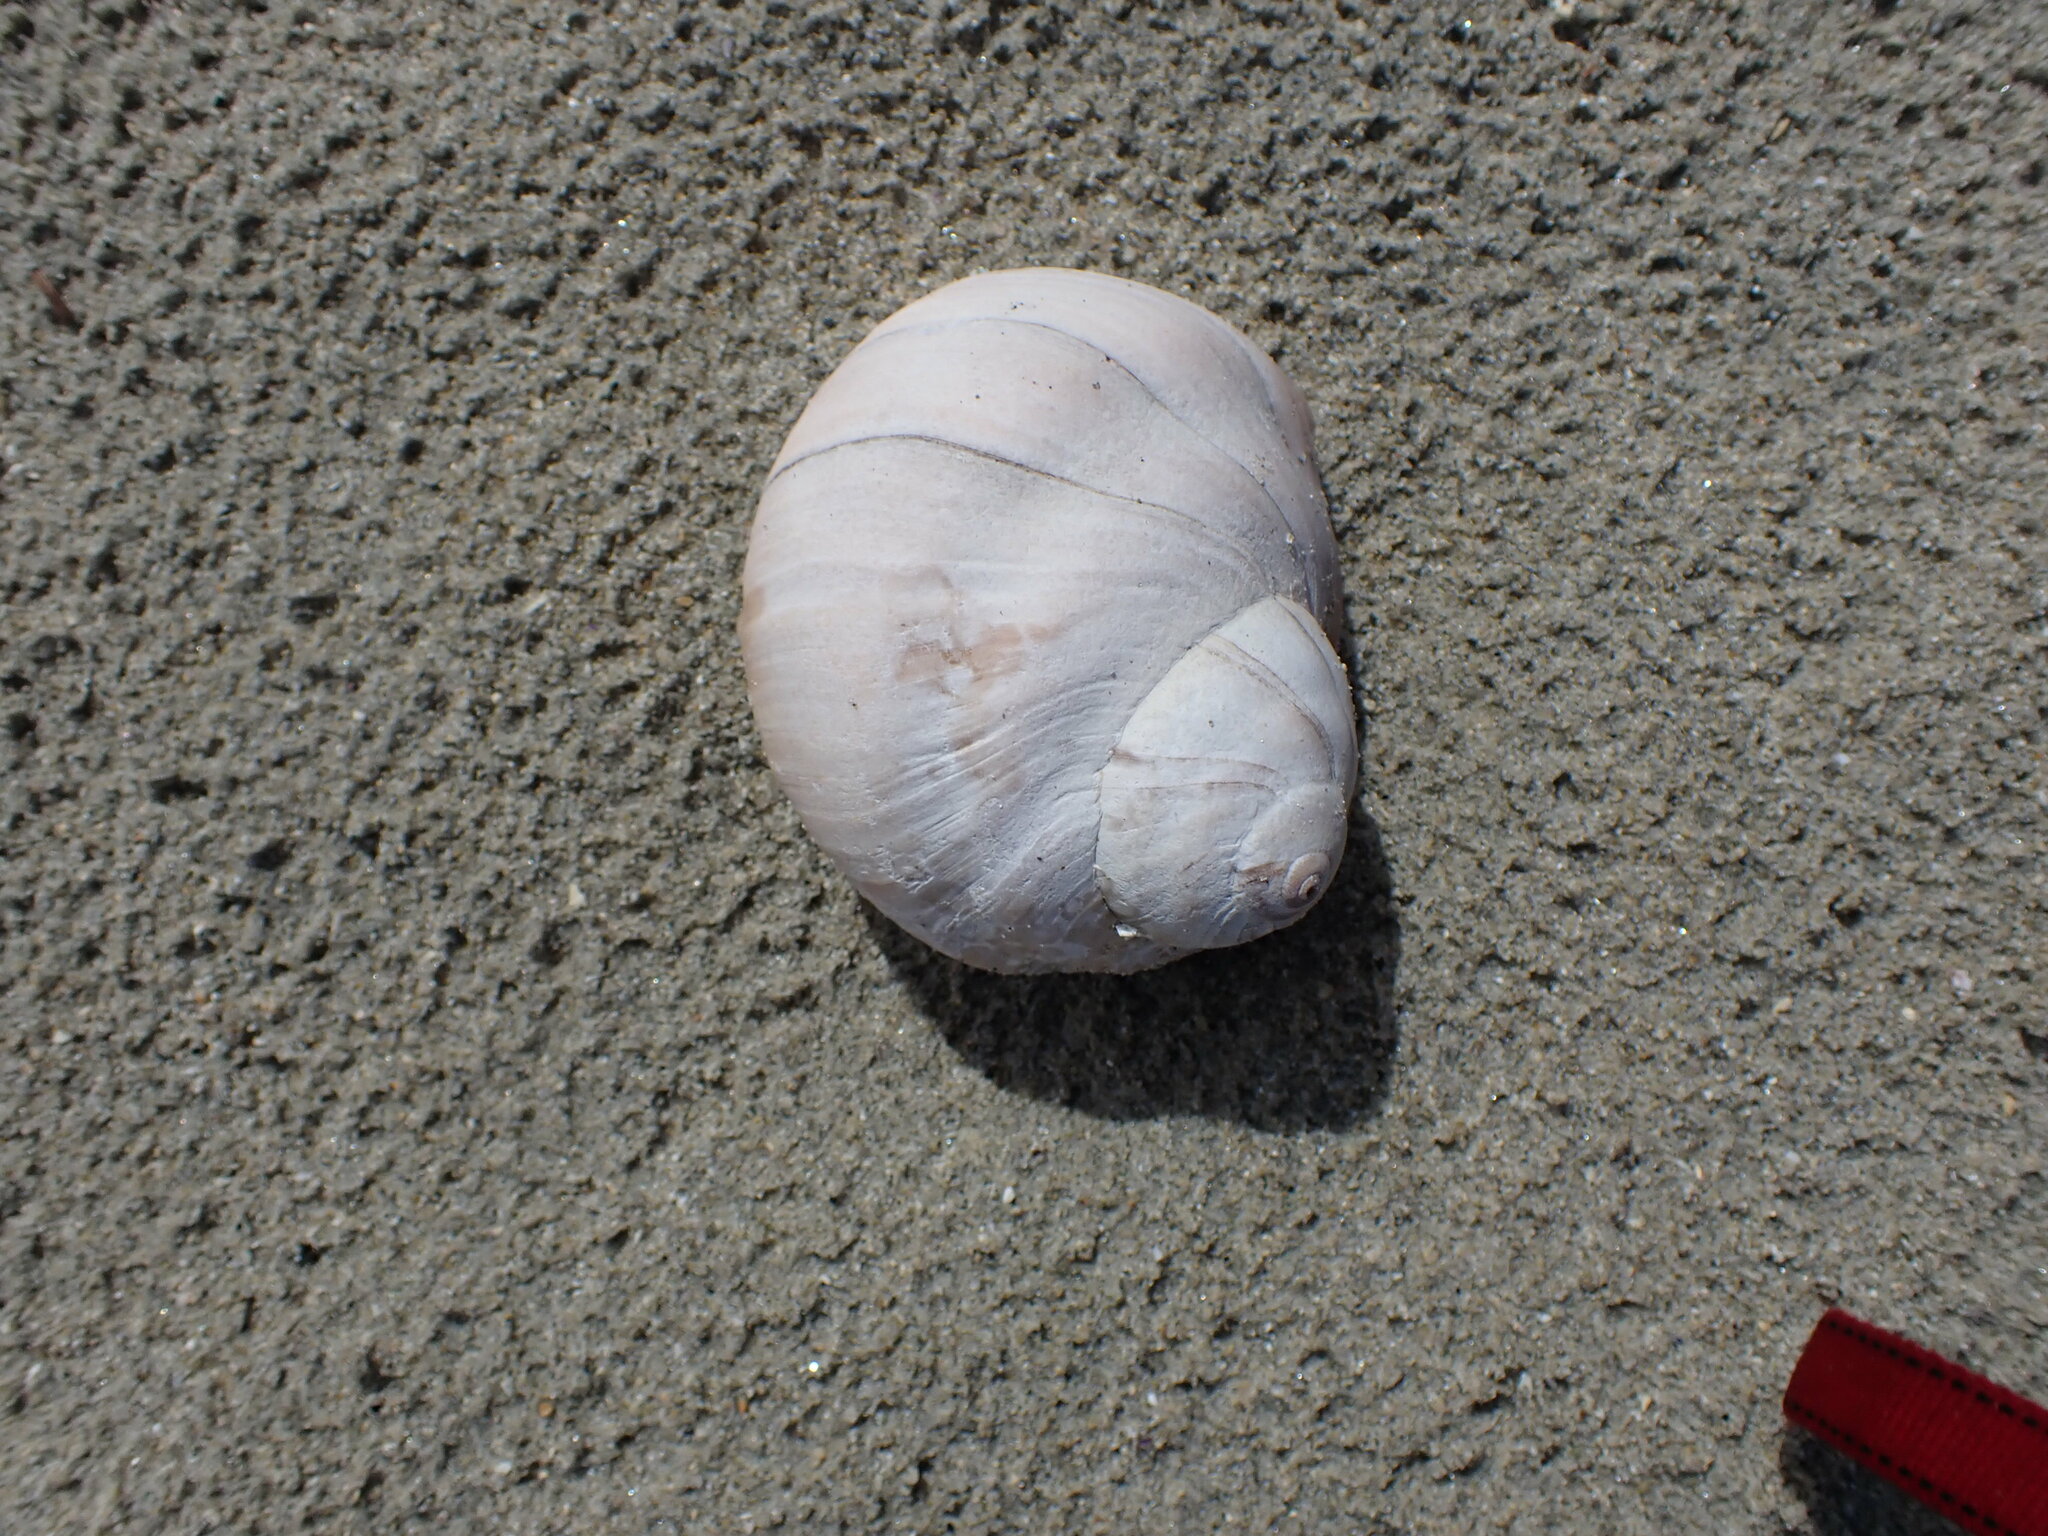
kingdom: Animalia
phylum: Mollusca
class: Gastropoda
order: Littorinimorpha
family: Naticidae
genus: Neverita
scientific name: Neverita lewisii
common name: Lewis' moonsnail
